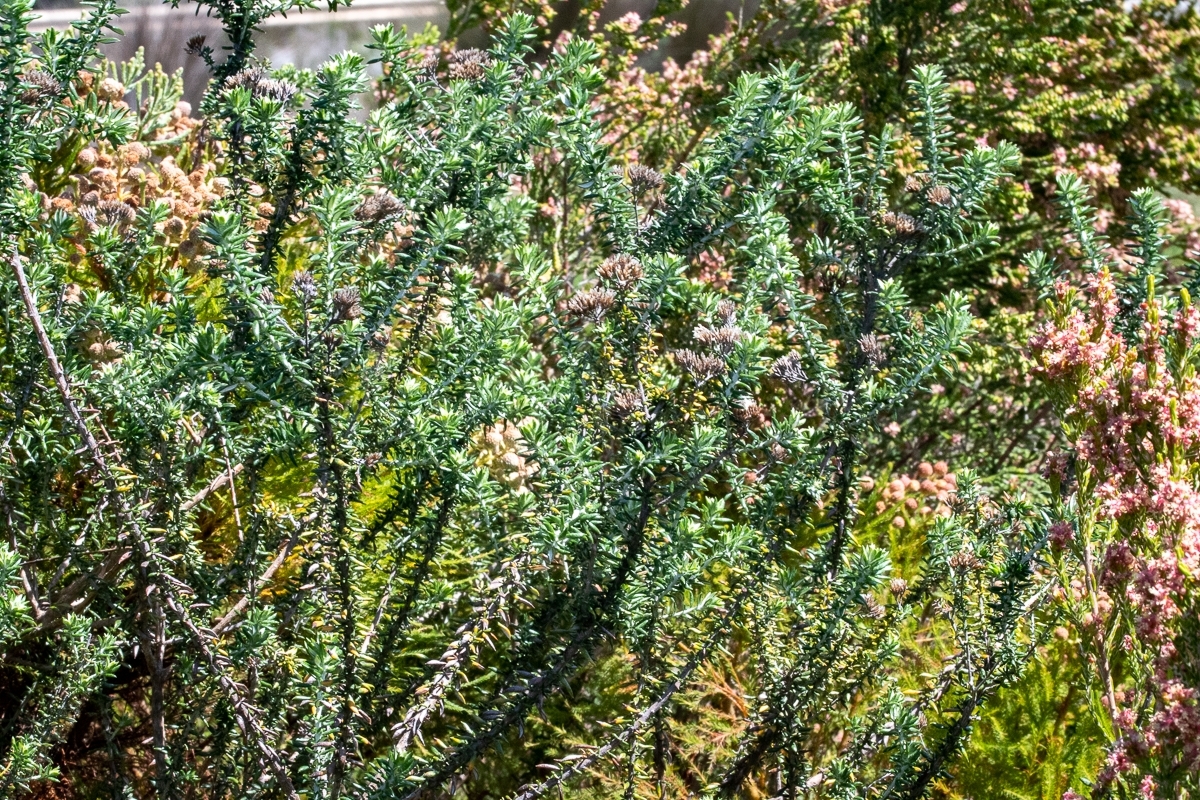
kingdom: Plantae
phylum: Tracheophyta
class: Magnoliopsida
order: Asterales
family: Asteraceae
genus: Metalasia
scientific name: Metalasia densa
